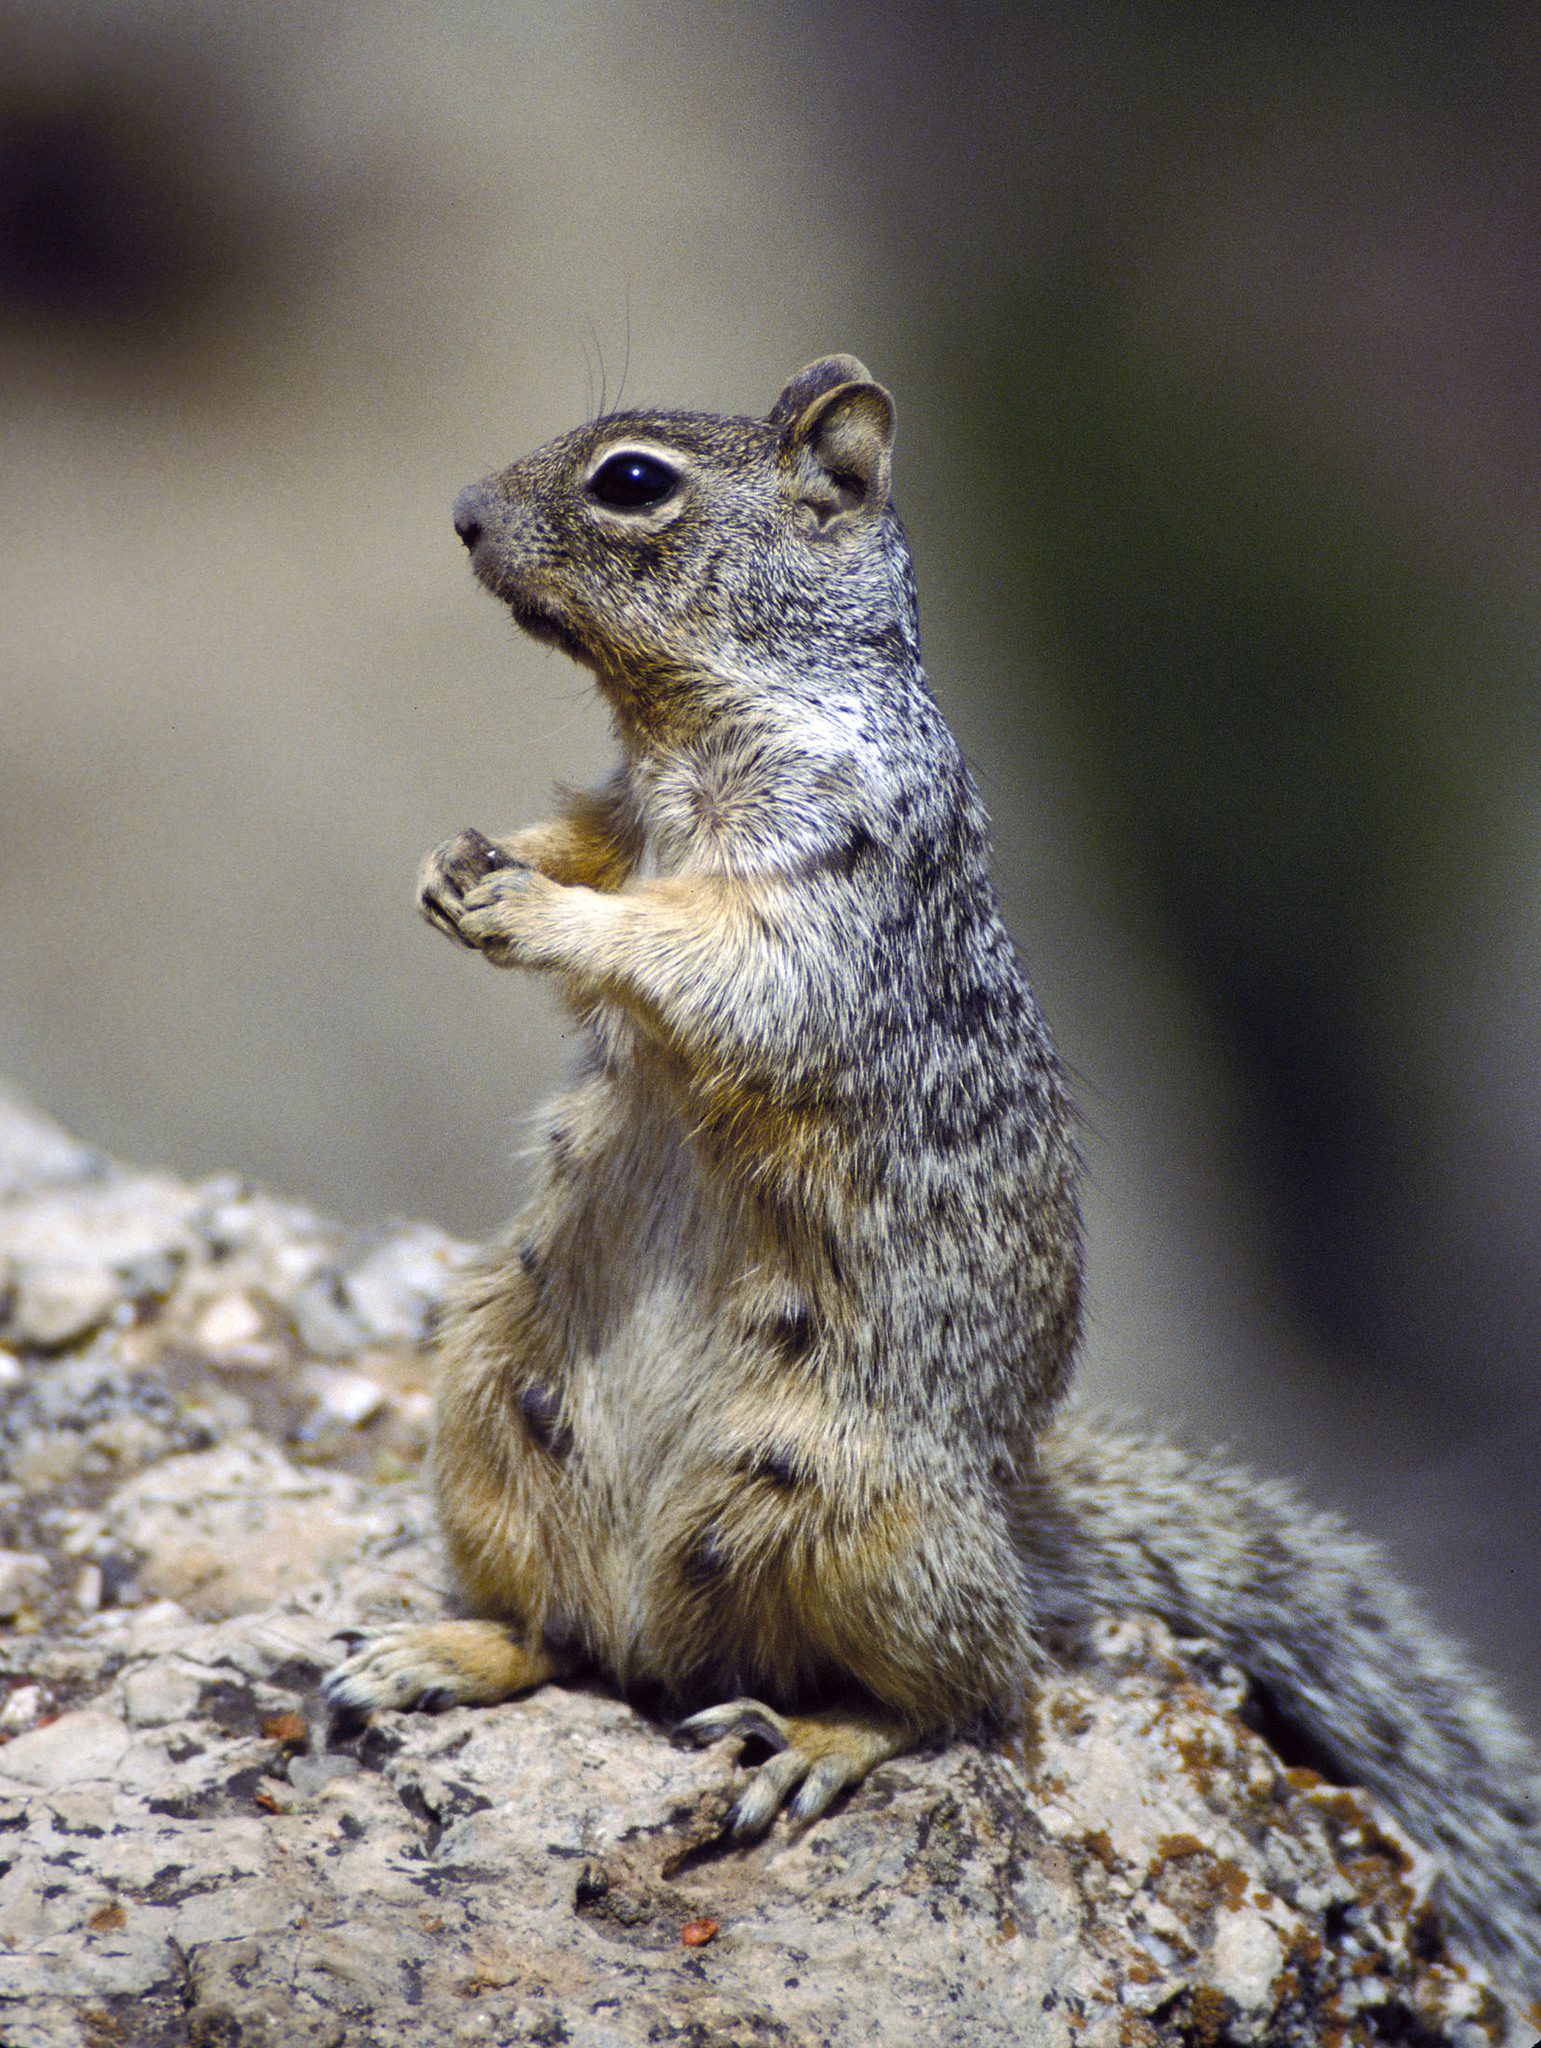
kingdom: Animalia
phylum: Chordata
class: Mammalia
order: Rodentia
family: Sciuridae
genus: Otospermophilus
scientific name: Otospermophilus variegatus
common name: Rock squirrel
